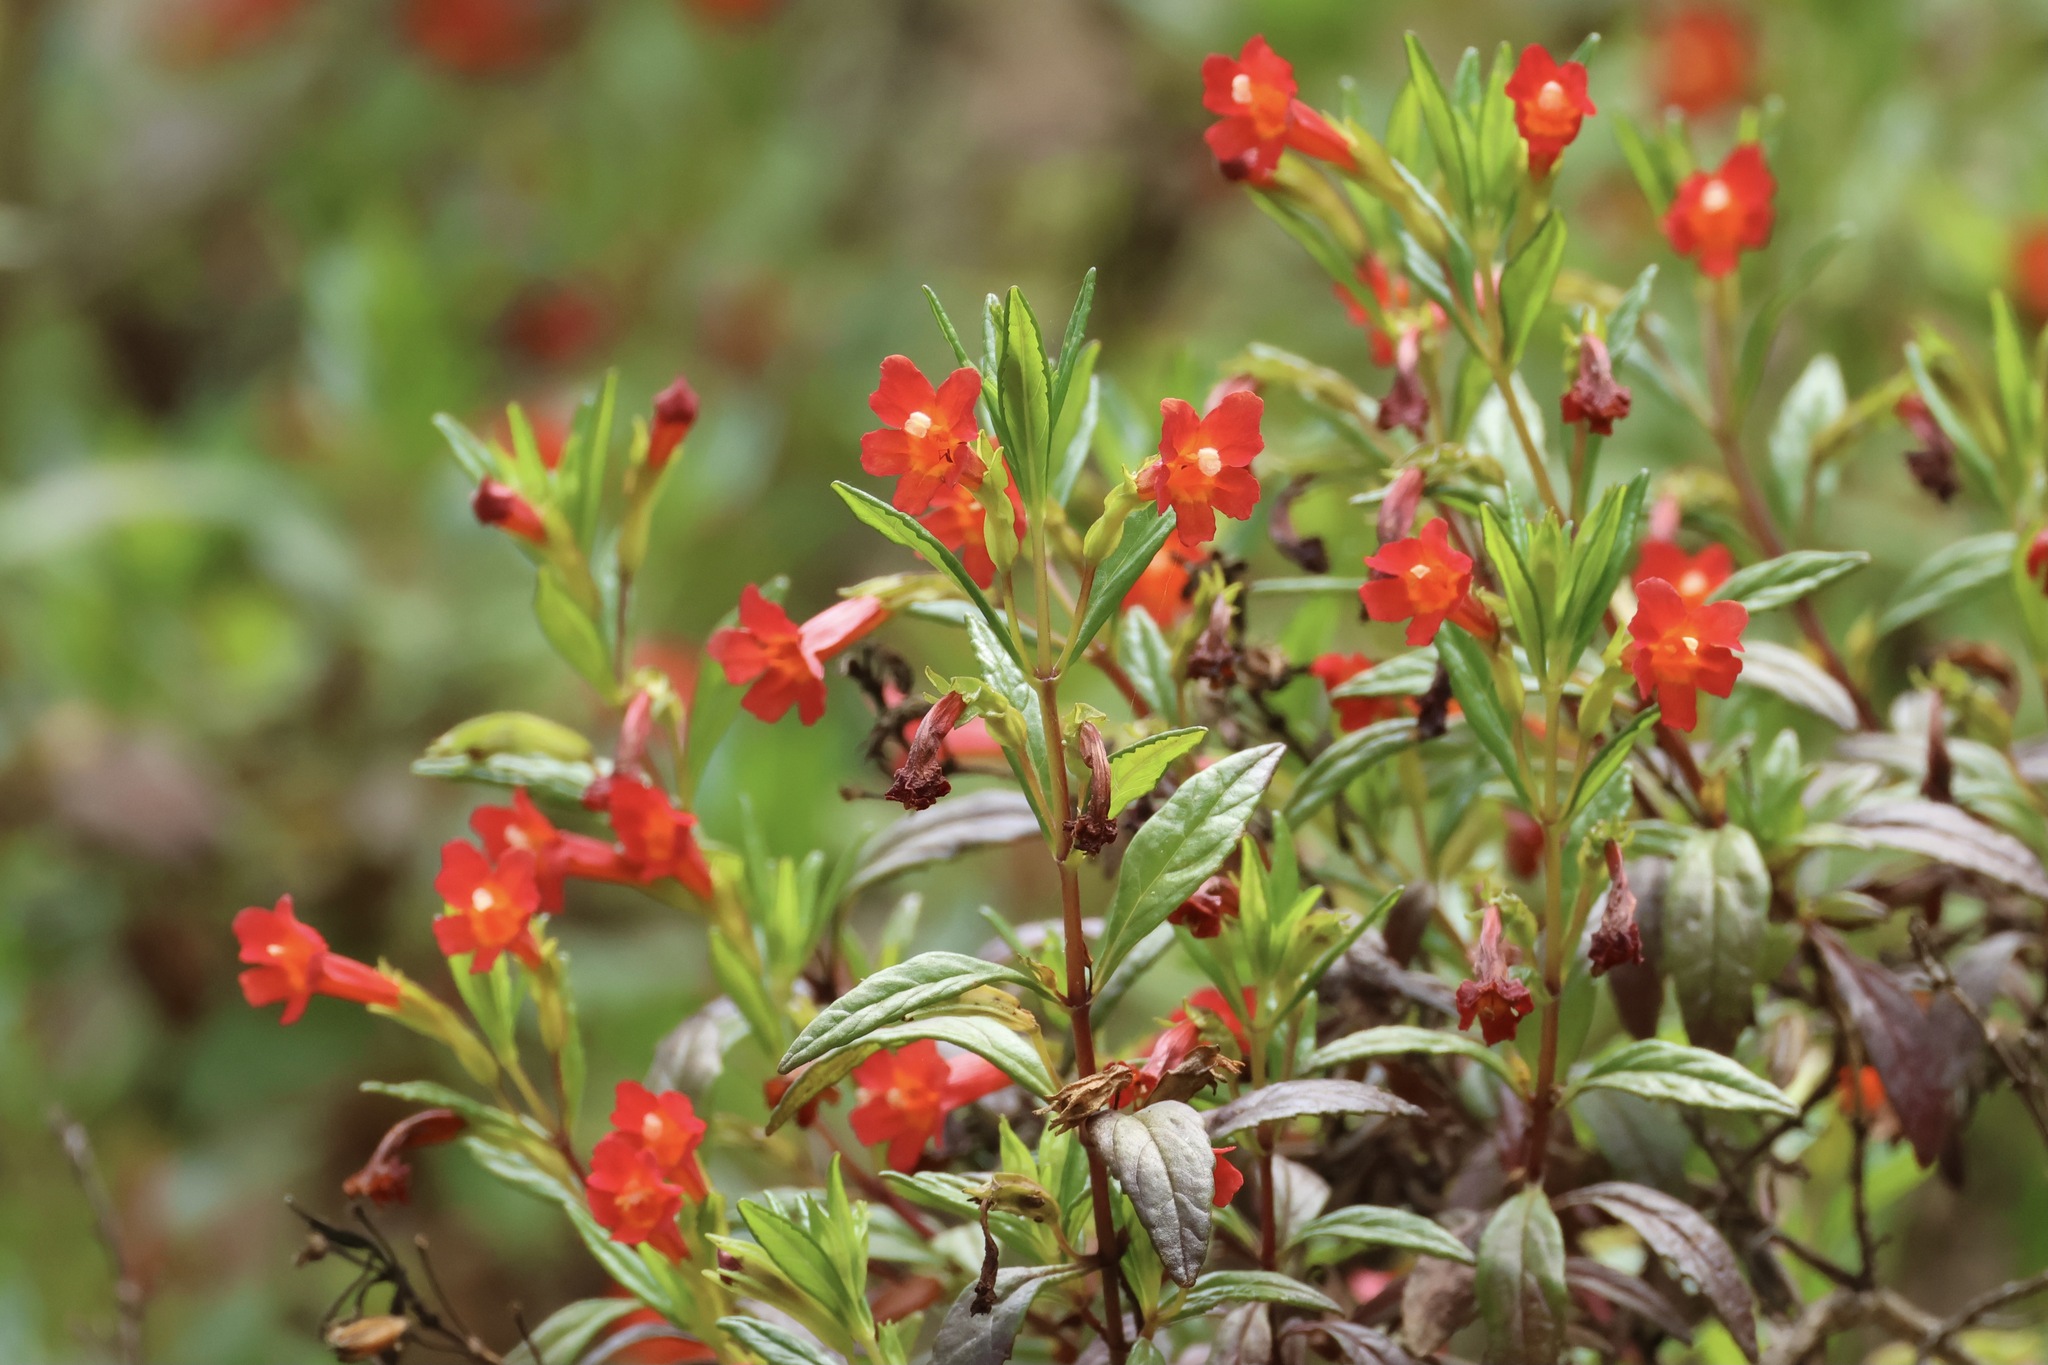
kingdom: Plantae
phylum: Tracheophyta
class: Magnoliopsida
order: Lamiales
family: Phrymaceae
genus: Diplacus
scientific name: Diplacus parviflorus
